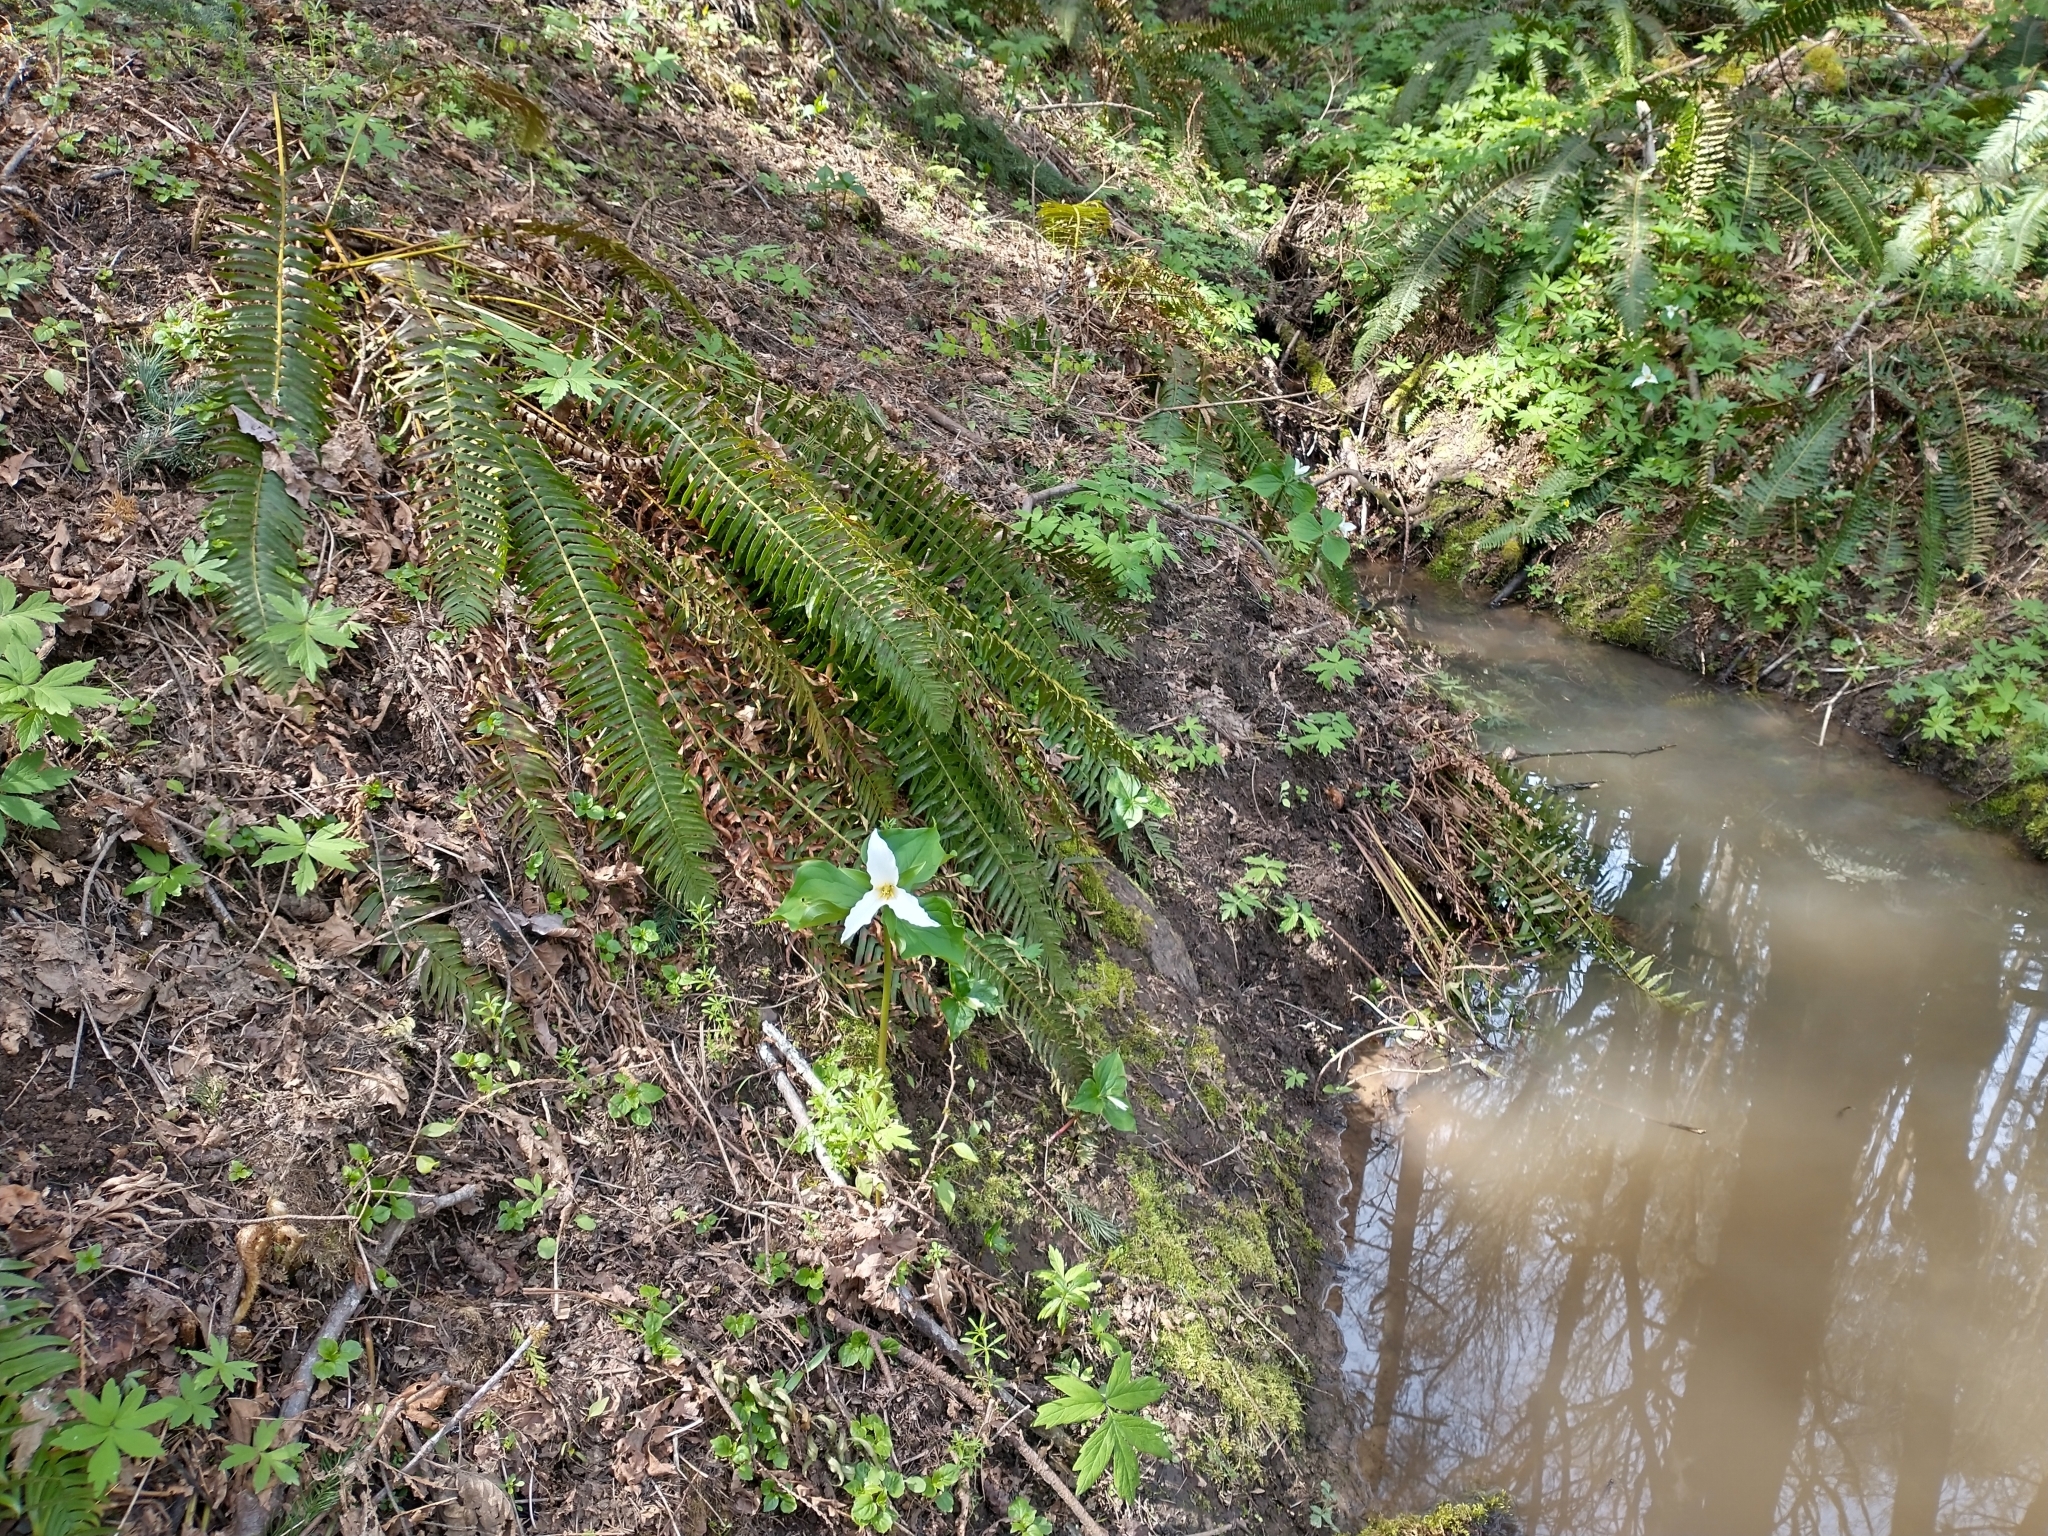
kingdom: Plantae
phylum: Tracheophyta
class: Liliopsida
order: Liliales
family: Melanthiaceae
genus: Trillium
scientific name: Trillium ovatum
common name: Pacific trillium
